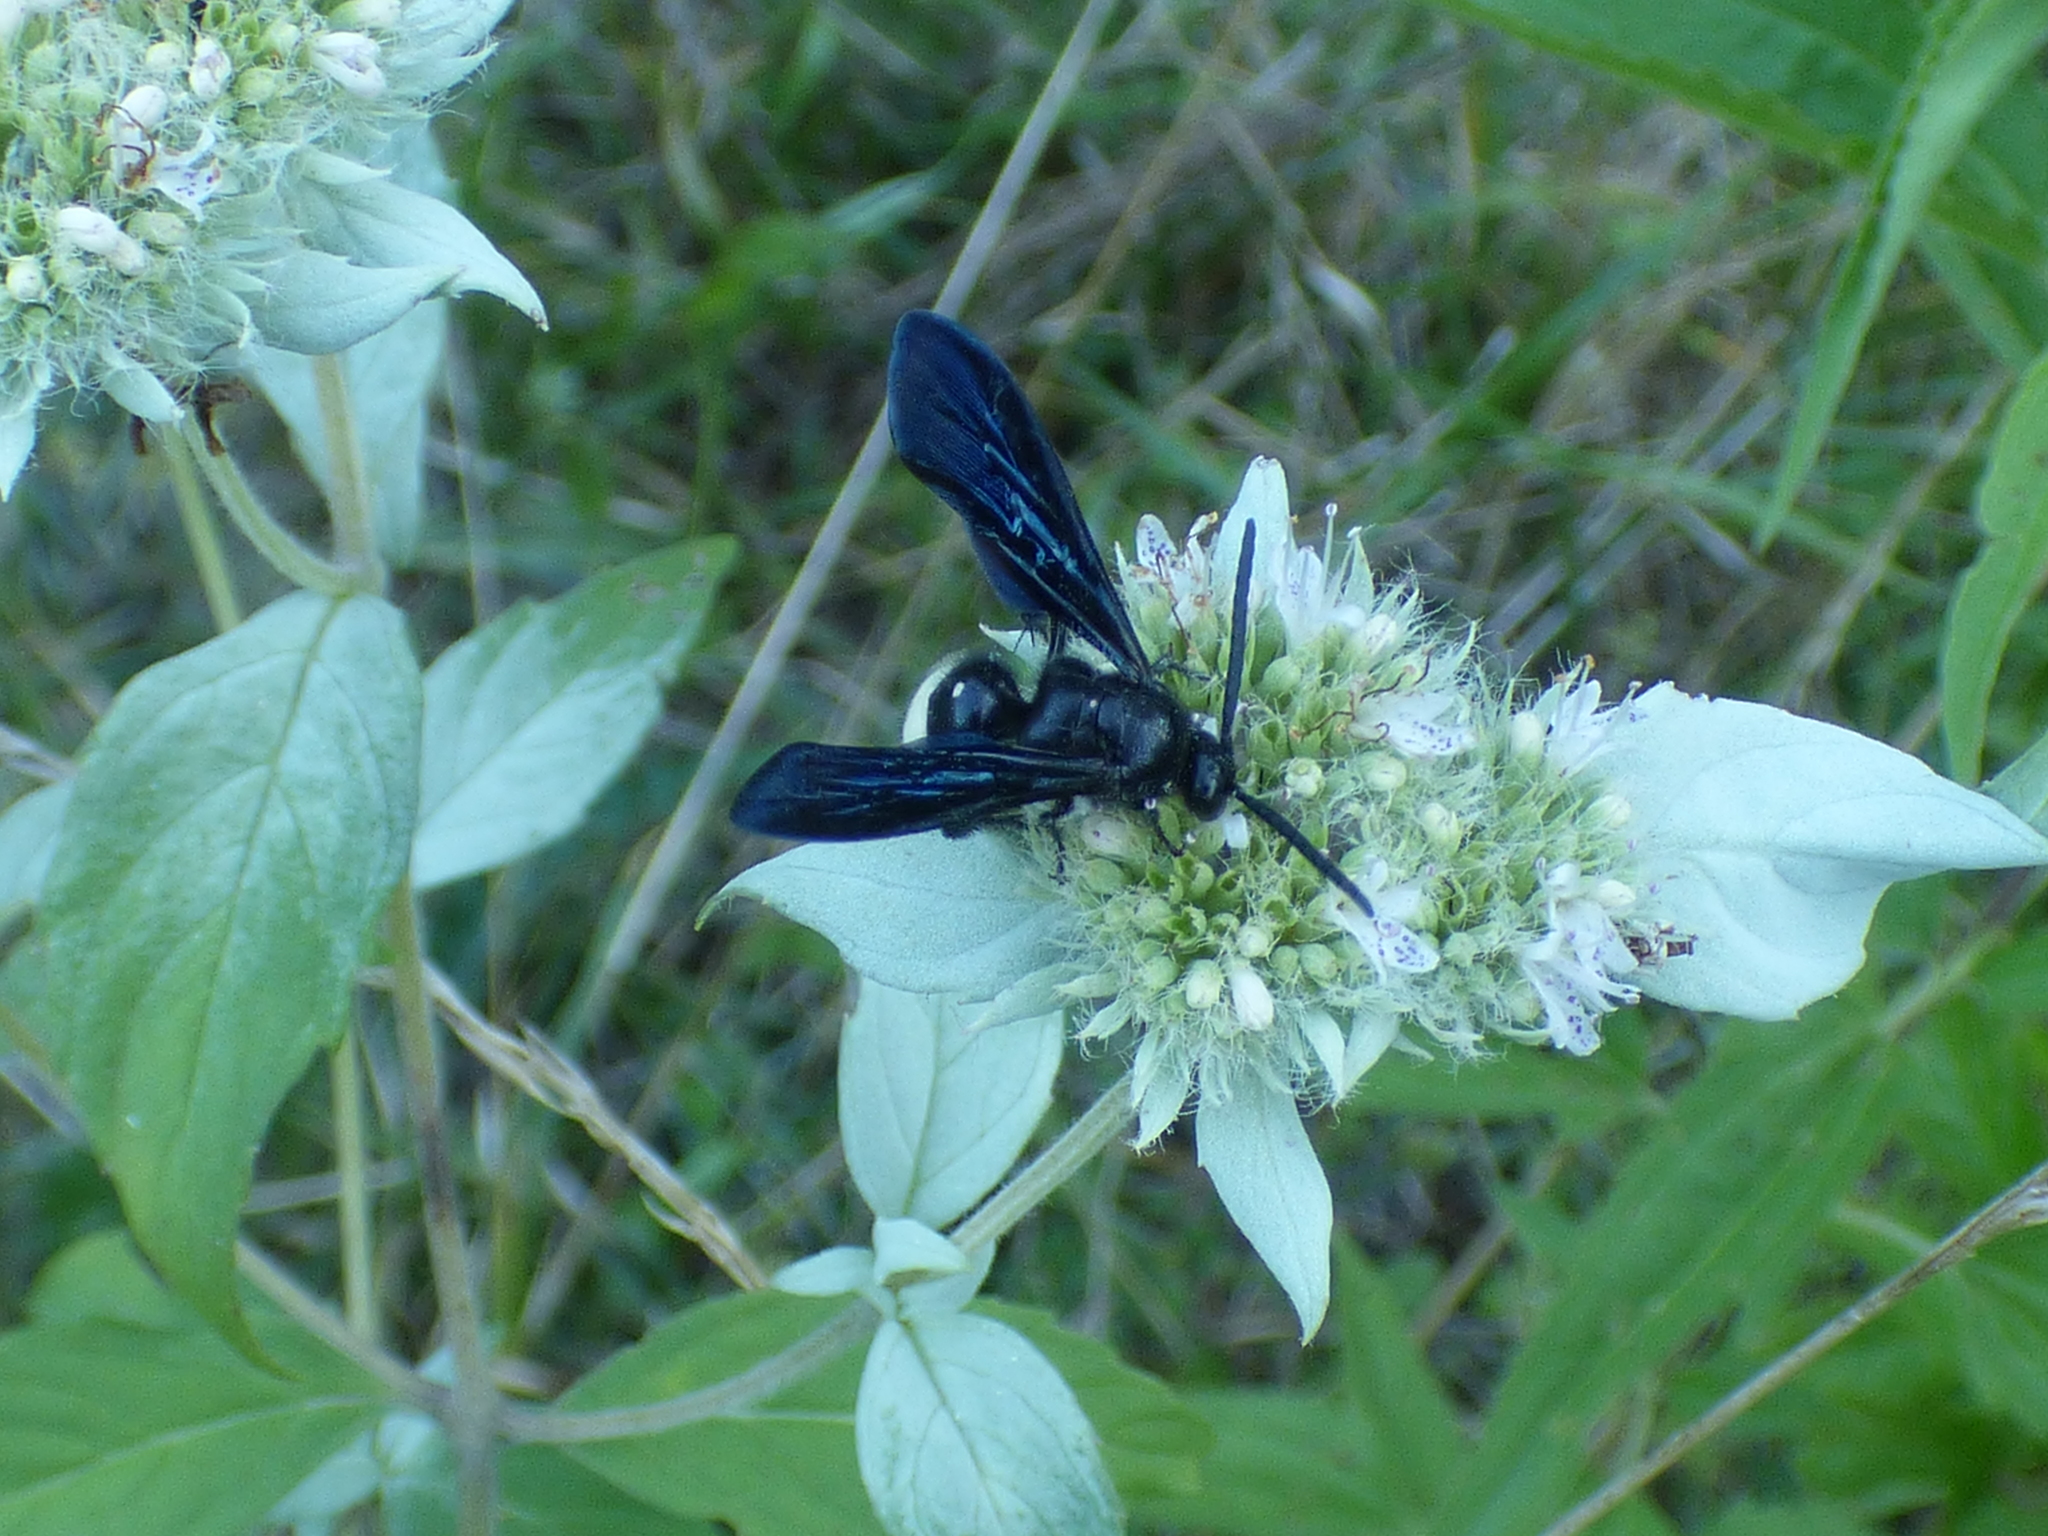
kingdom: Animalia
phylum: Arthropoda
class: Insecta
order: Hymenoptera
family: Scoliidae
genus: Scolia
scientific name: Scolia bicincta
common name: Double-banded scoliid wasp
